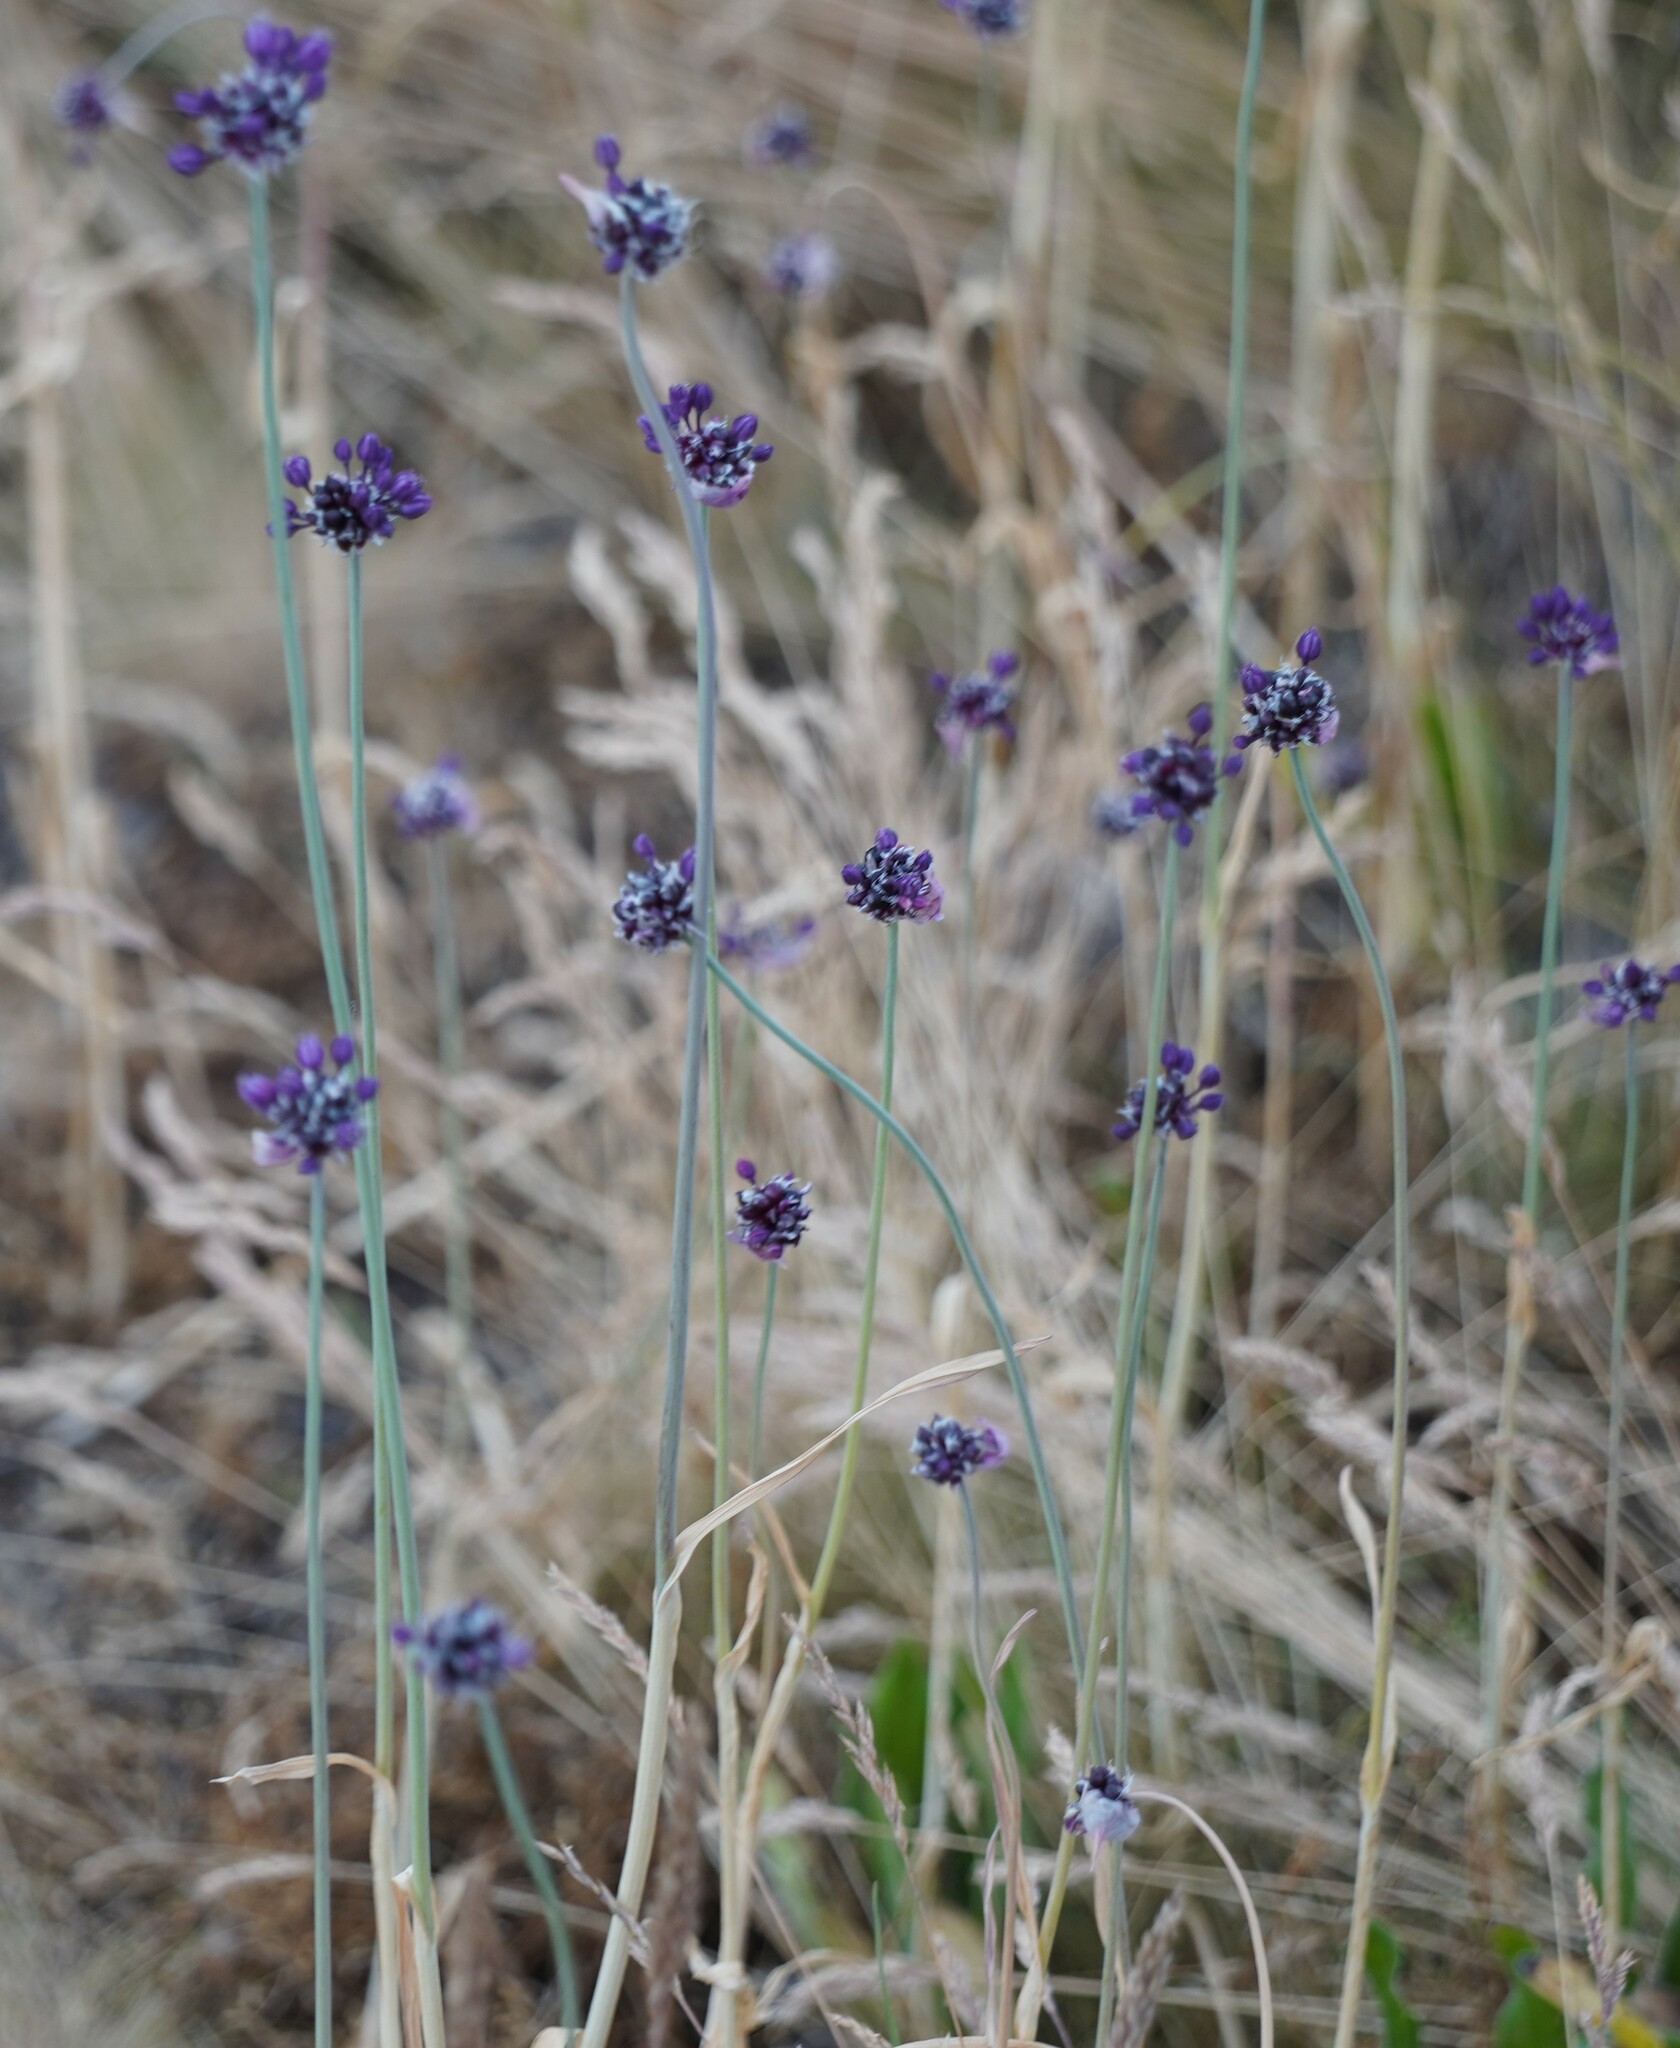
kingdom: Plantae
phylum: Tracheophyta
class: Liliopsida
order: Asparagales
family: Amaryllidaceae
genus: Allium
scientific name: Allium scorodoprasum
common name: Sand leek
